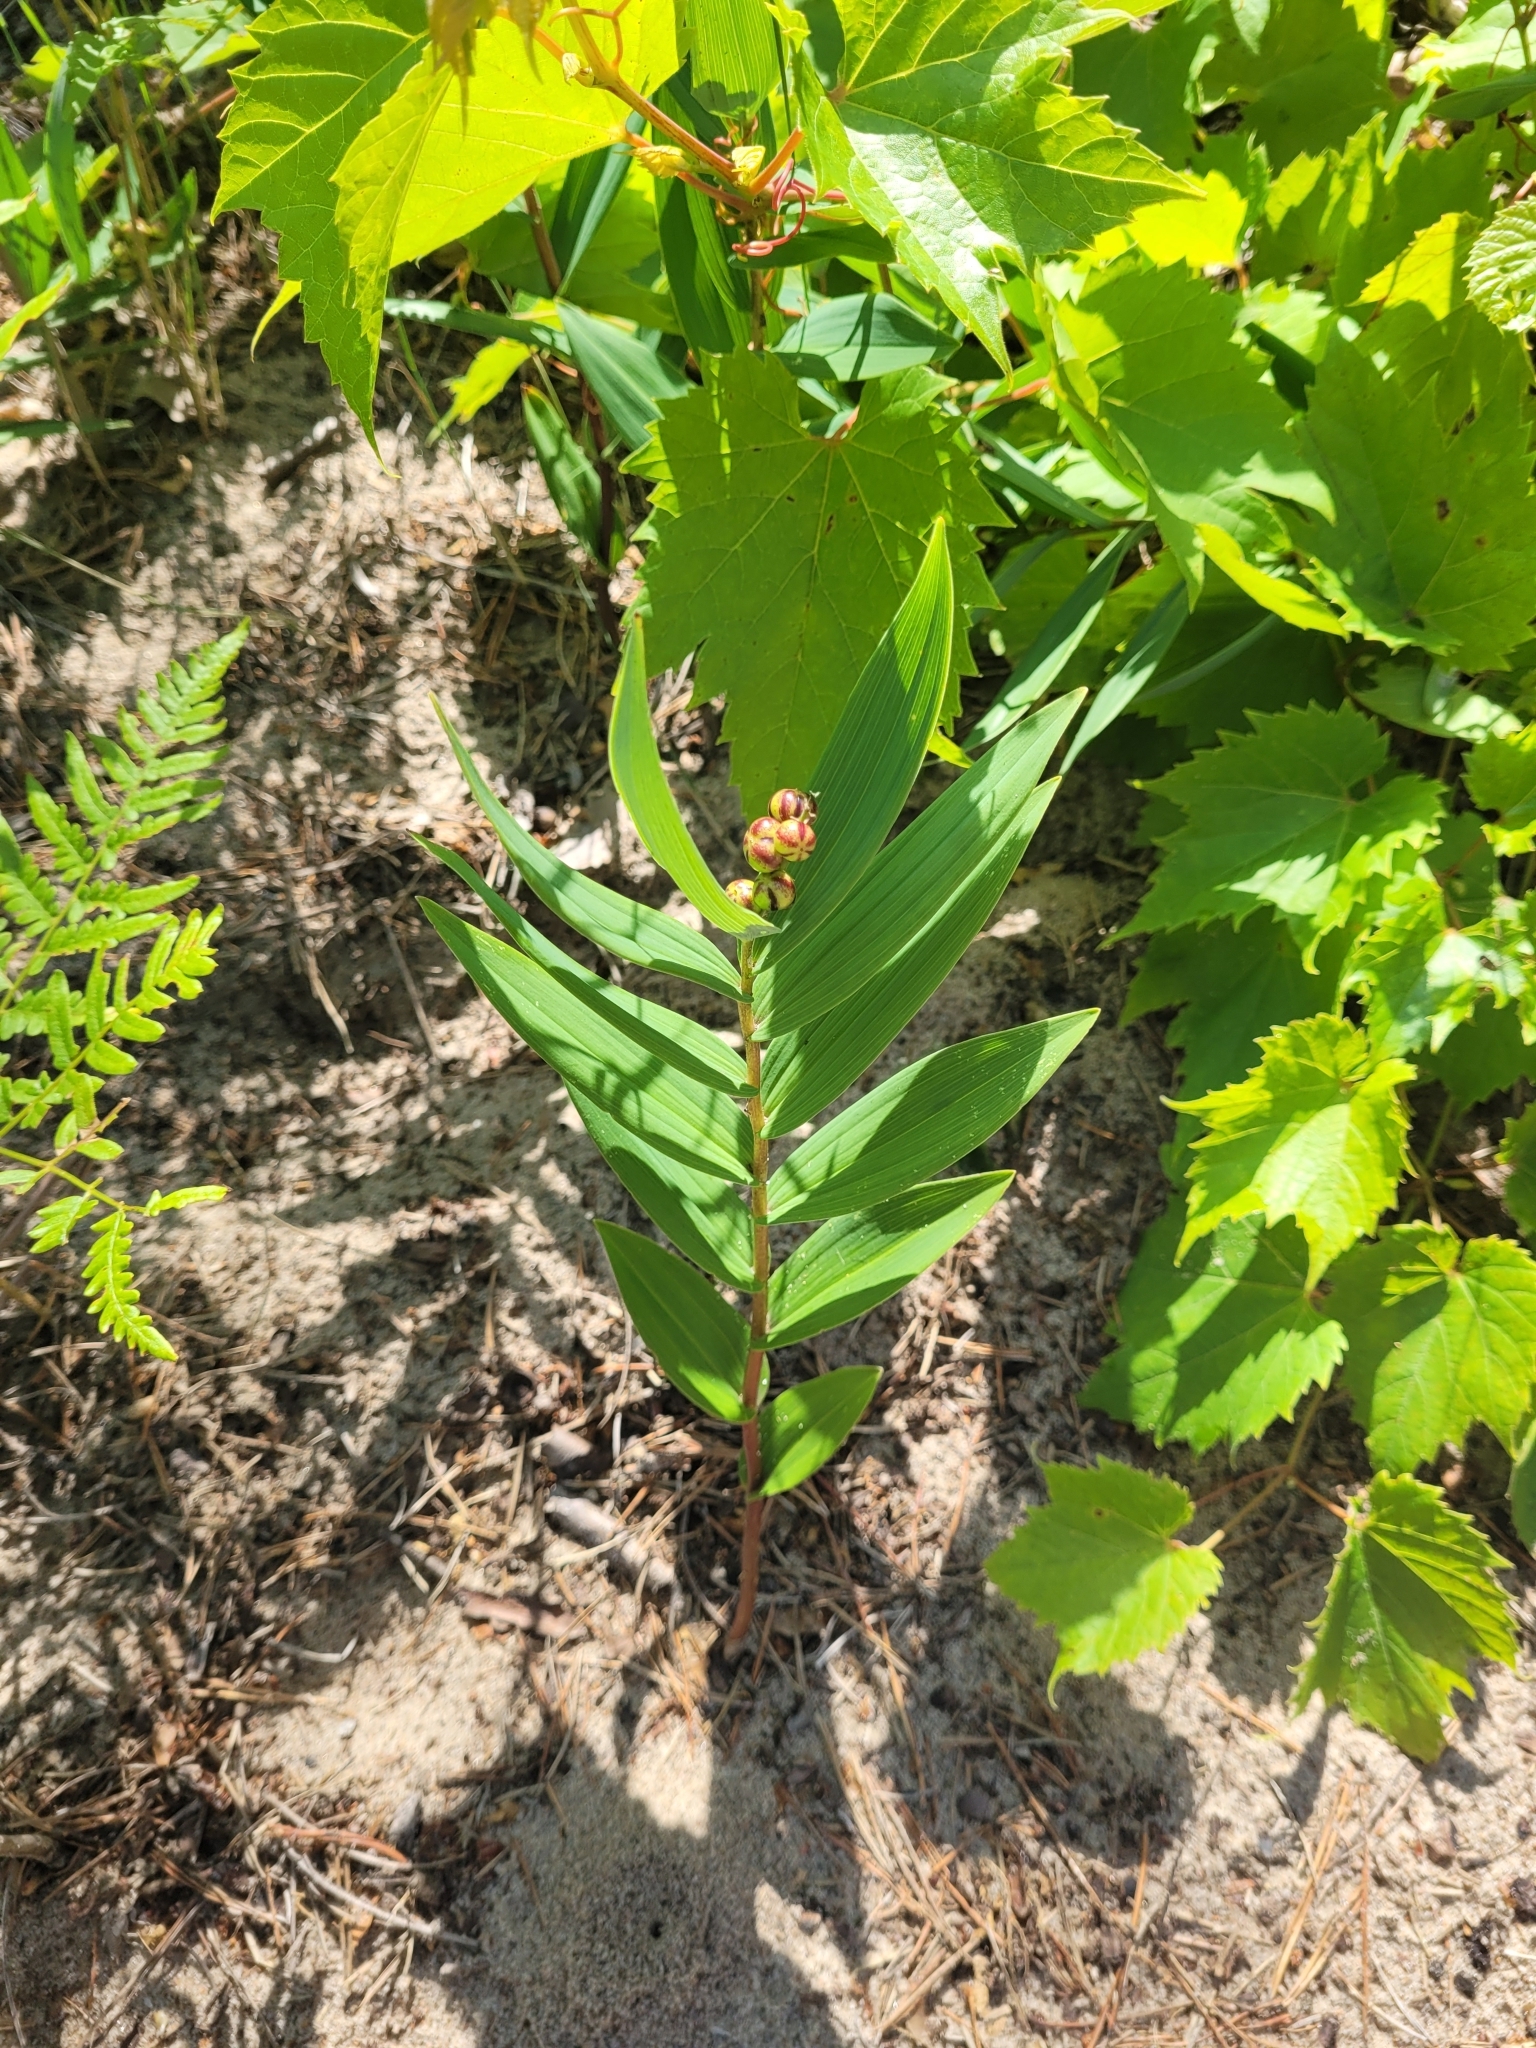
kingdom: Plantae
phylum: Tracheophyta
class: Liliopsida
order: Asparagales
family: Asparagaceae
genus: Maianthemum
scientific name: Maianthemum stellatum
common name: Little false solomon's seal
